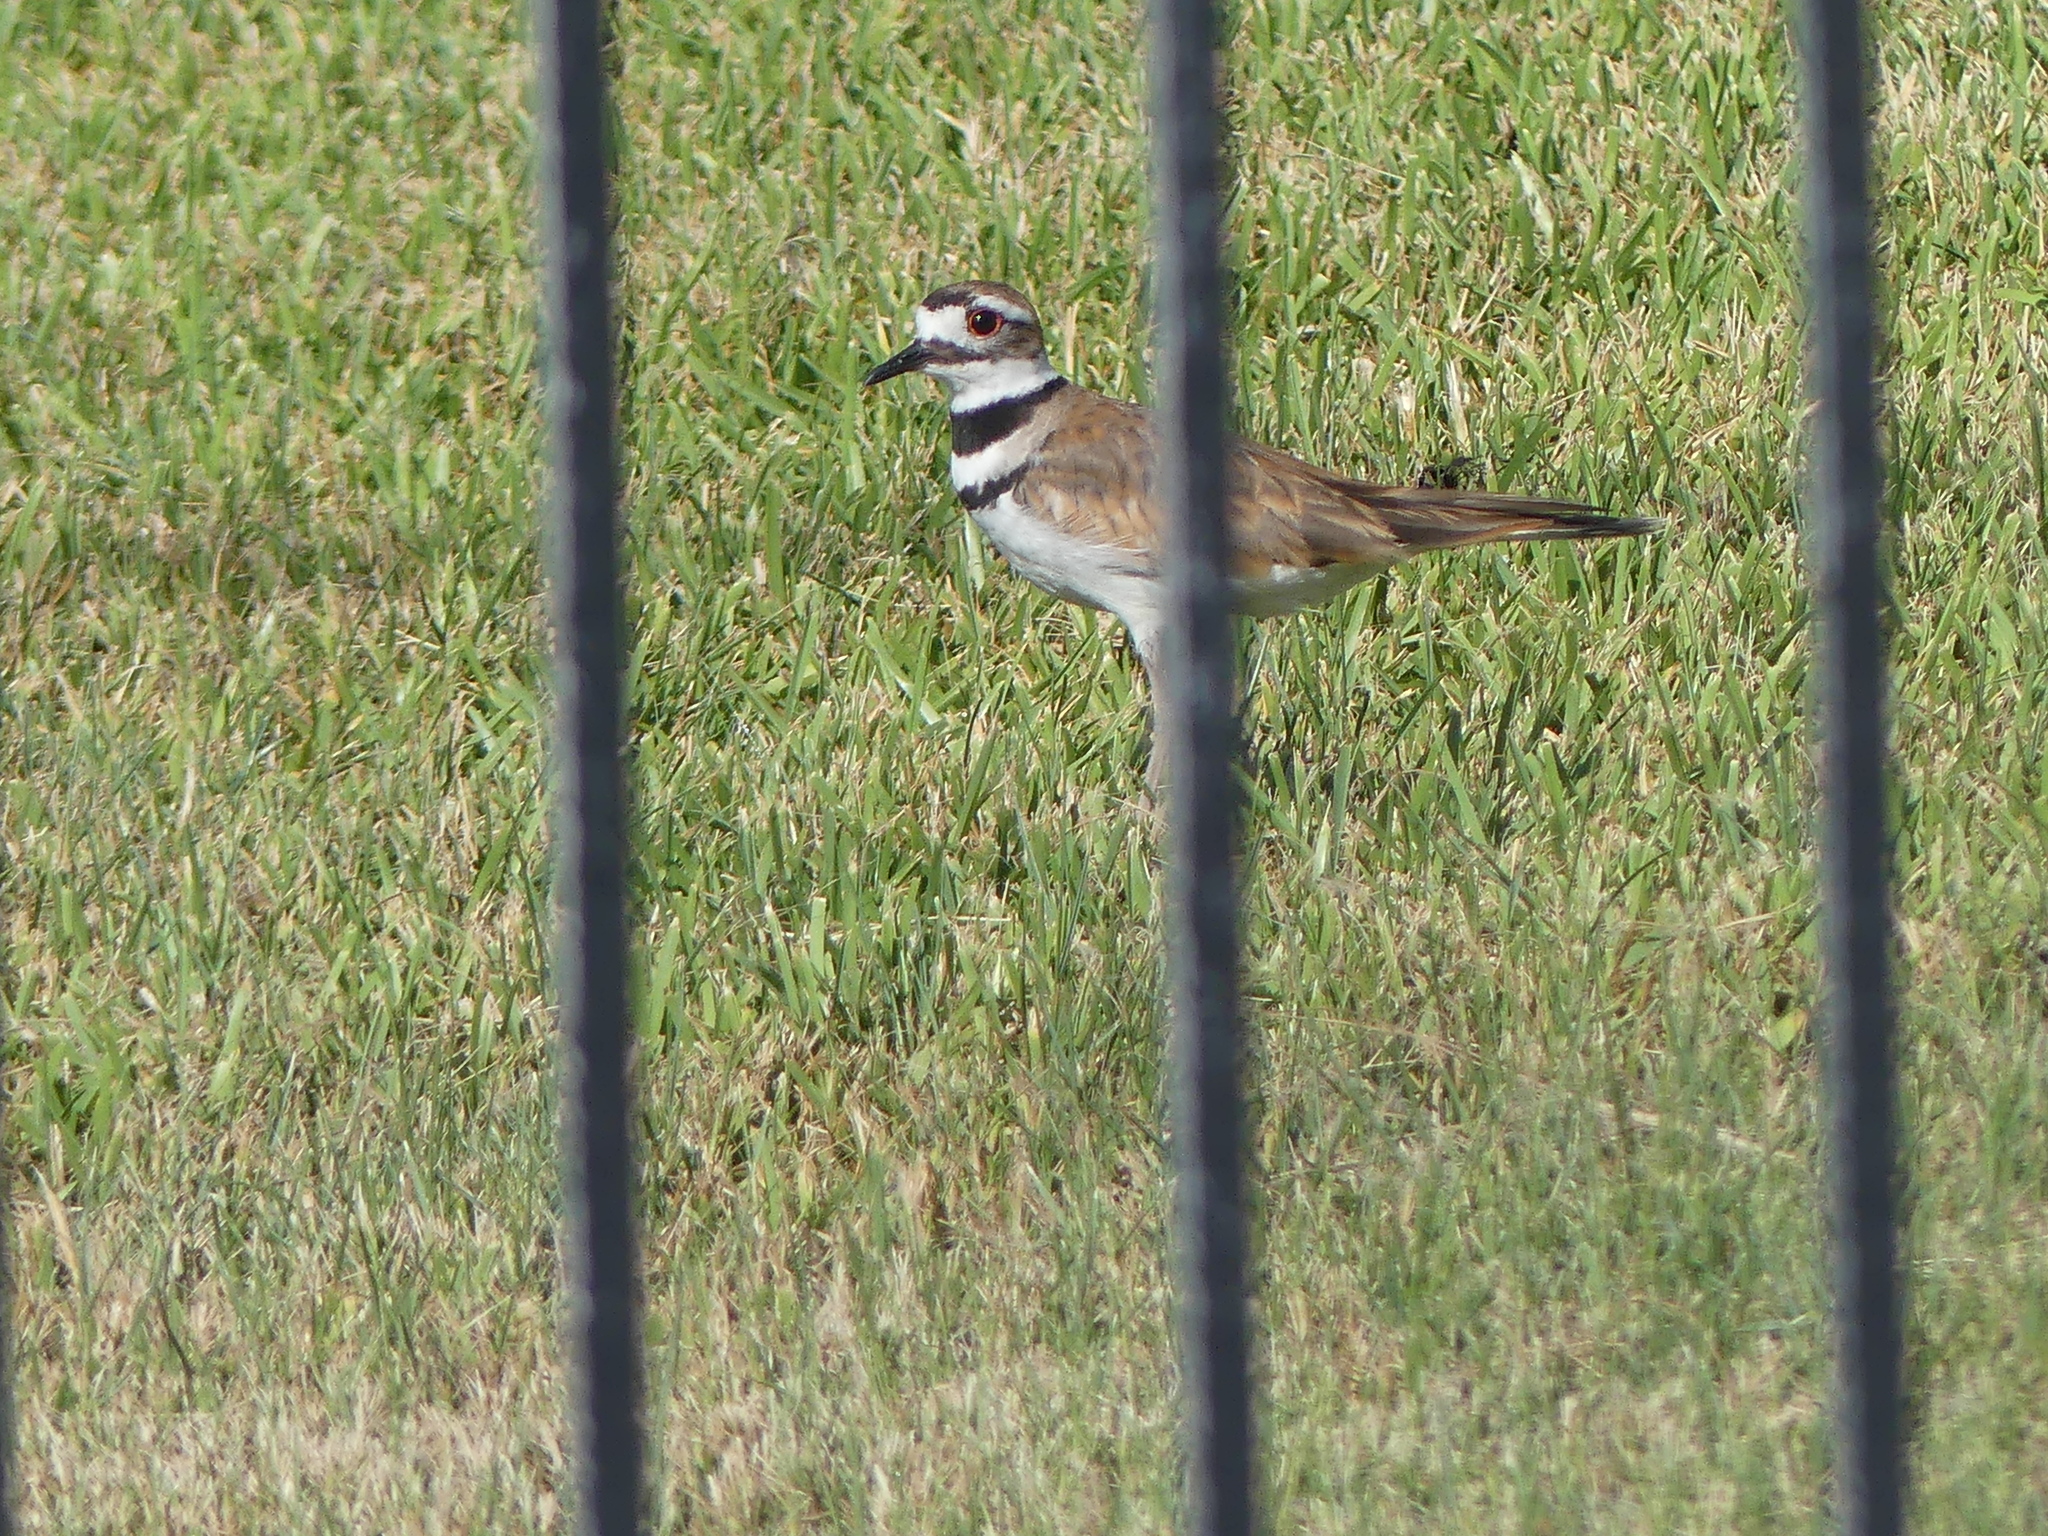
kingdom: Animalia
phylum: Chordata
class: Aves
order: Charadriiformes
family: Charadriidae
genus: Charadrius
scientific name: Charadrius vociferus
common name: Killdeer
